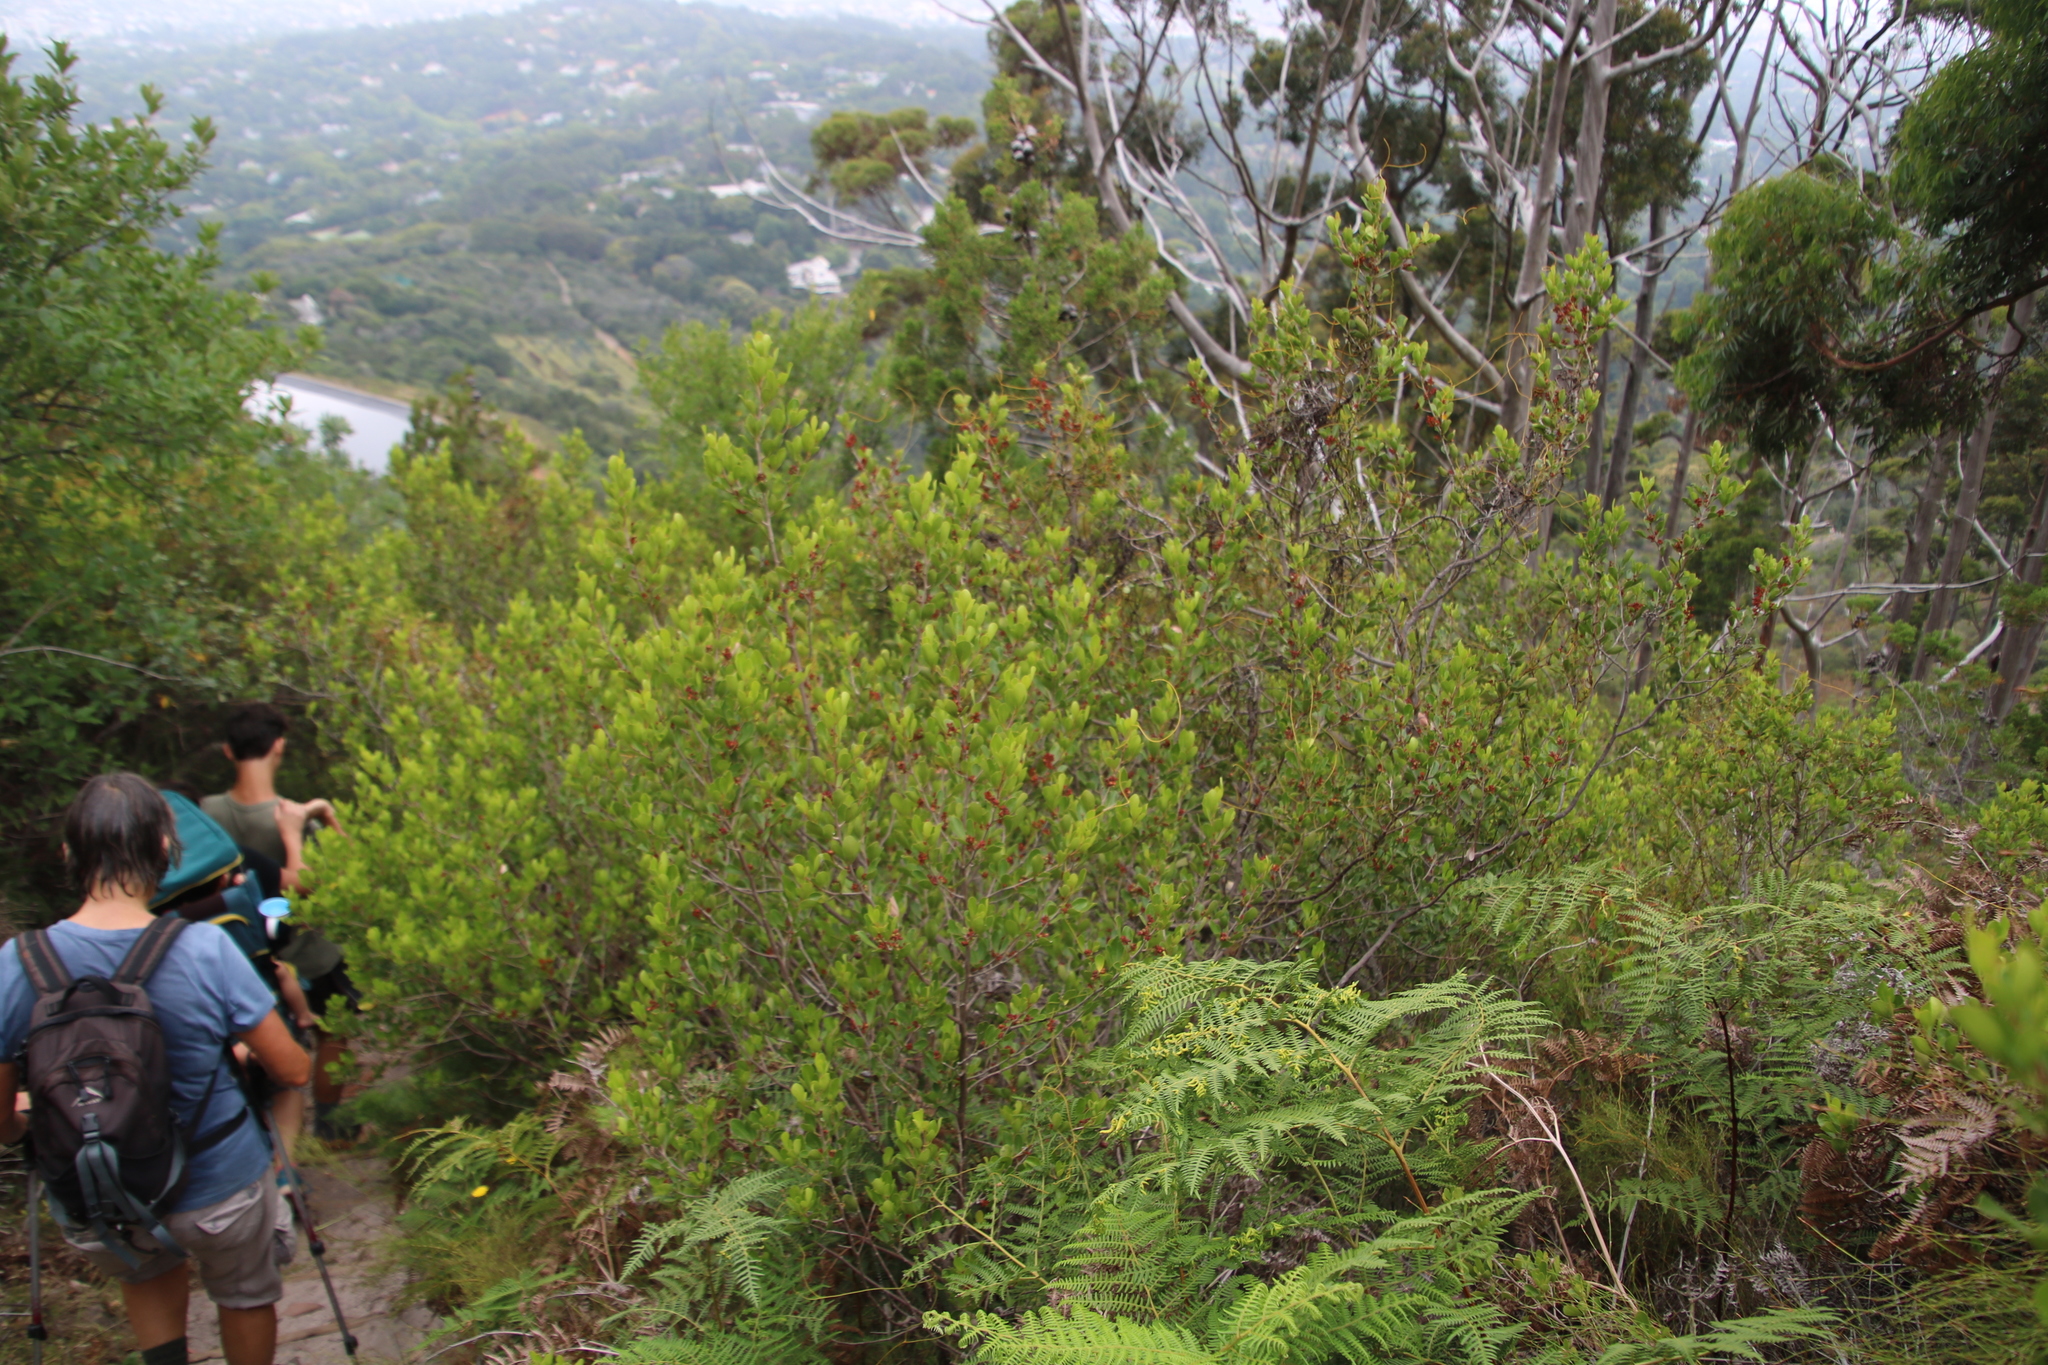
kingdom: Plantae
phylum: Tracheophyta
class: Magnoliopsida
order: Sapindales
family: Anacardiaceae
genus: Searsia
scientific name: Searsia lucida
